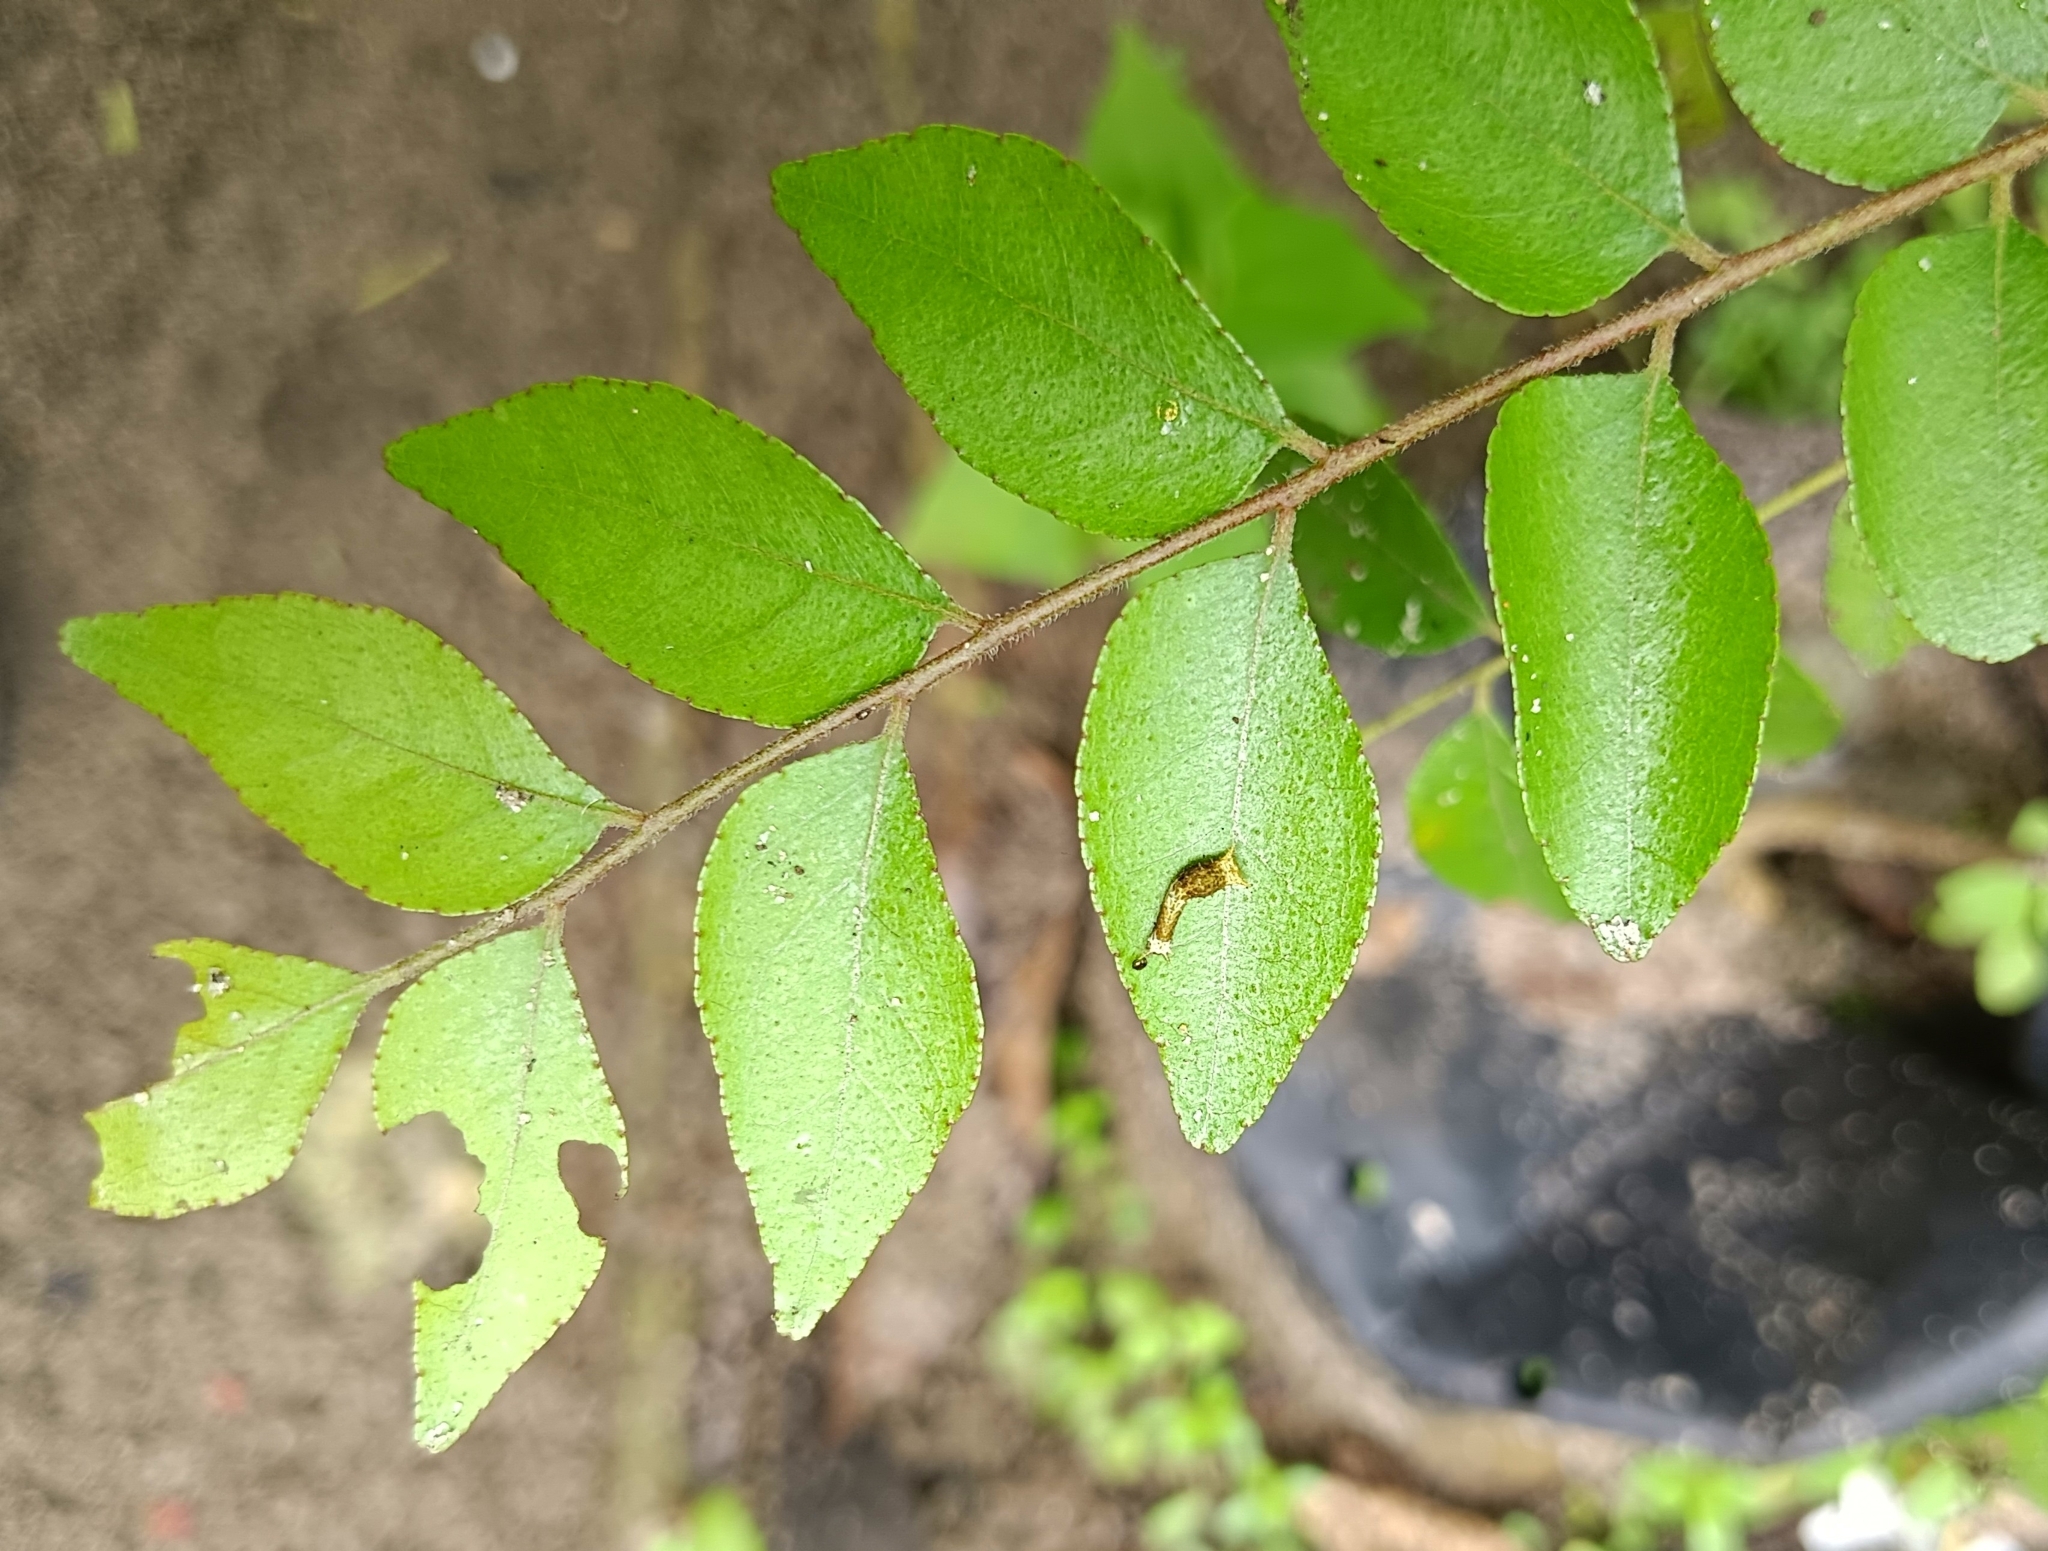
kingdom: Animalia
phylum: Arthropoda
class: Insecta
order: Lepidoptera
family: Papilionidae
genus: Papilio
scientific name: Papilio polytes
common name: Common mormon
